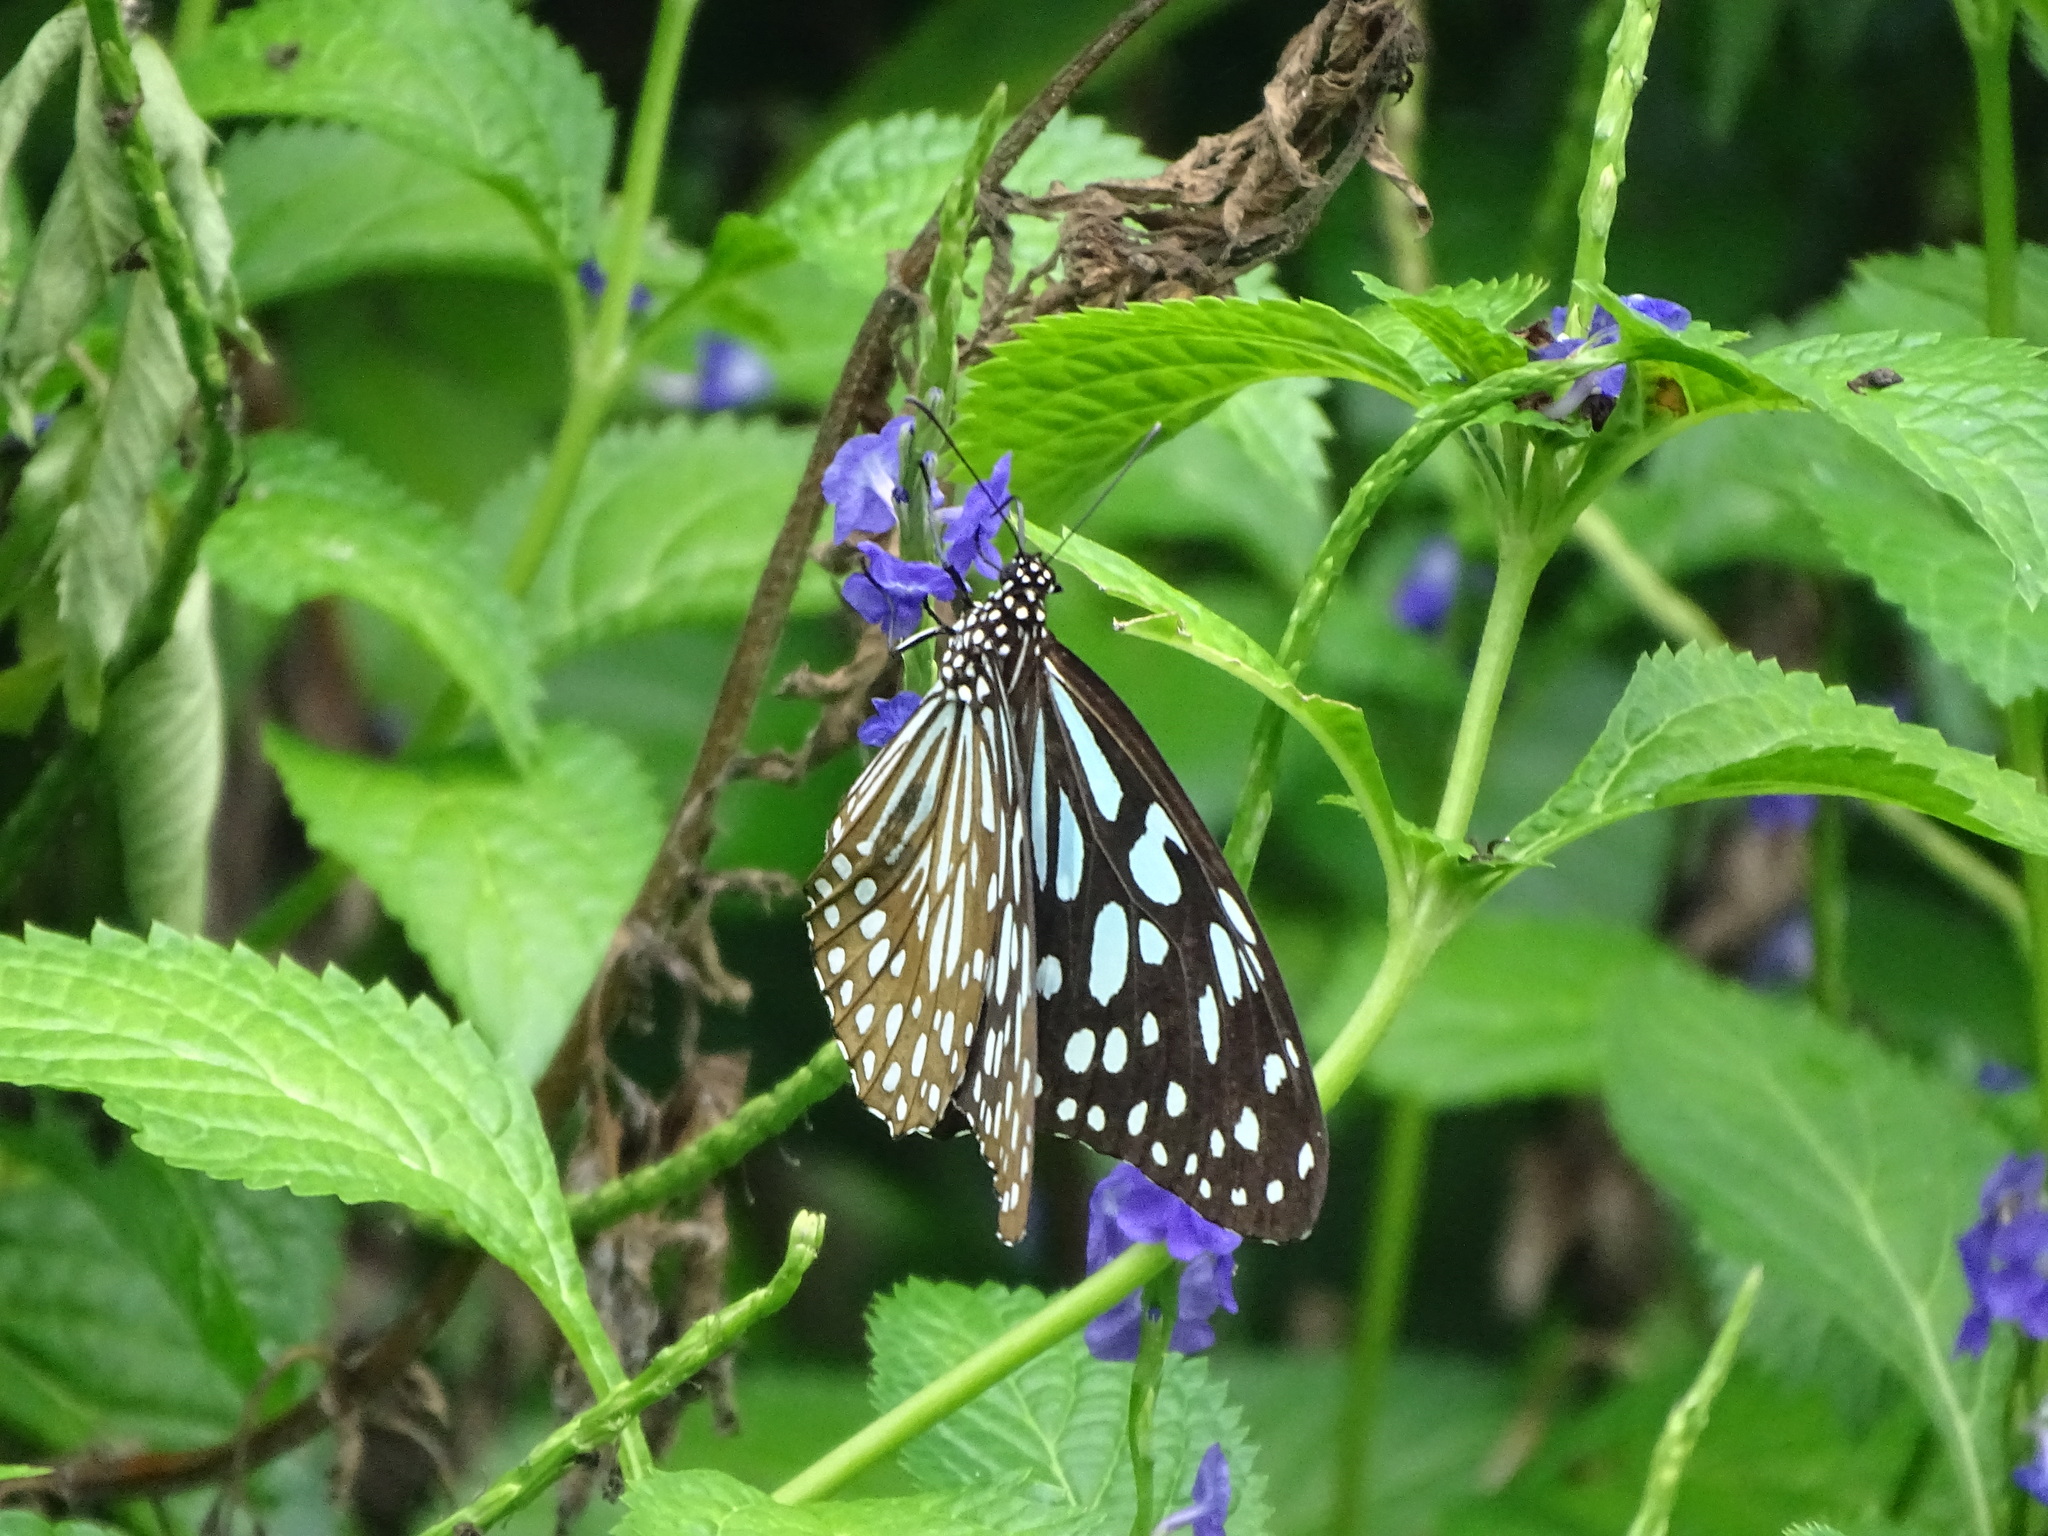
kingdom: Animalia
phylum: Arthropoda
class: Insecta
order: Lepidoptera
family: Nymphalidae
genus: Tirumala
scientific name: Tirumala limniace
